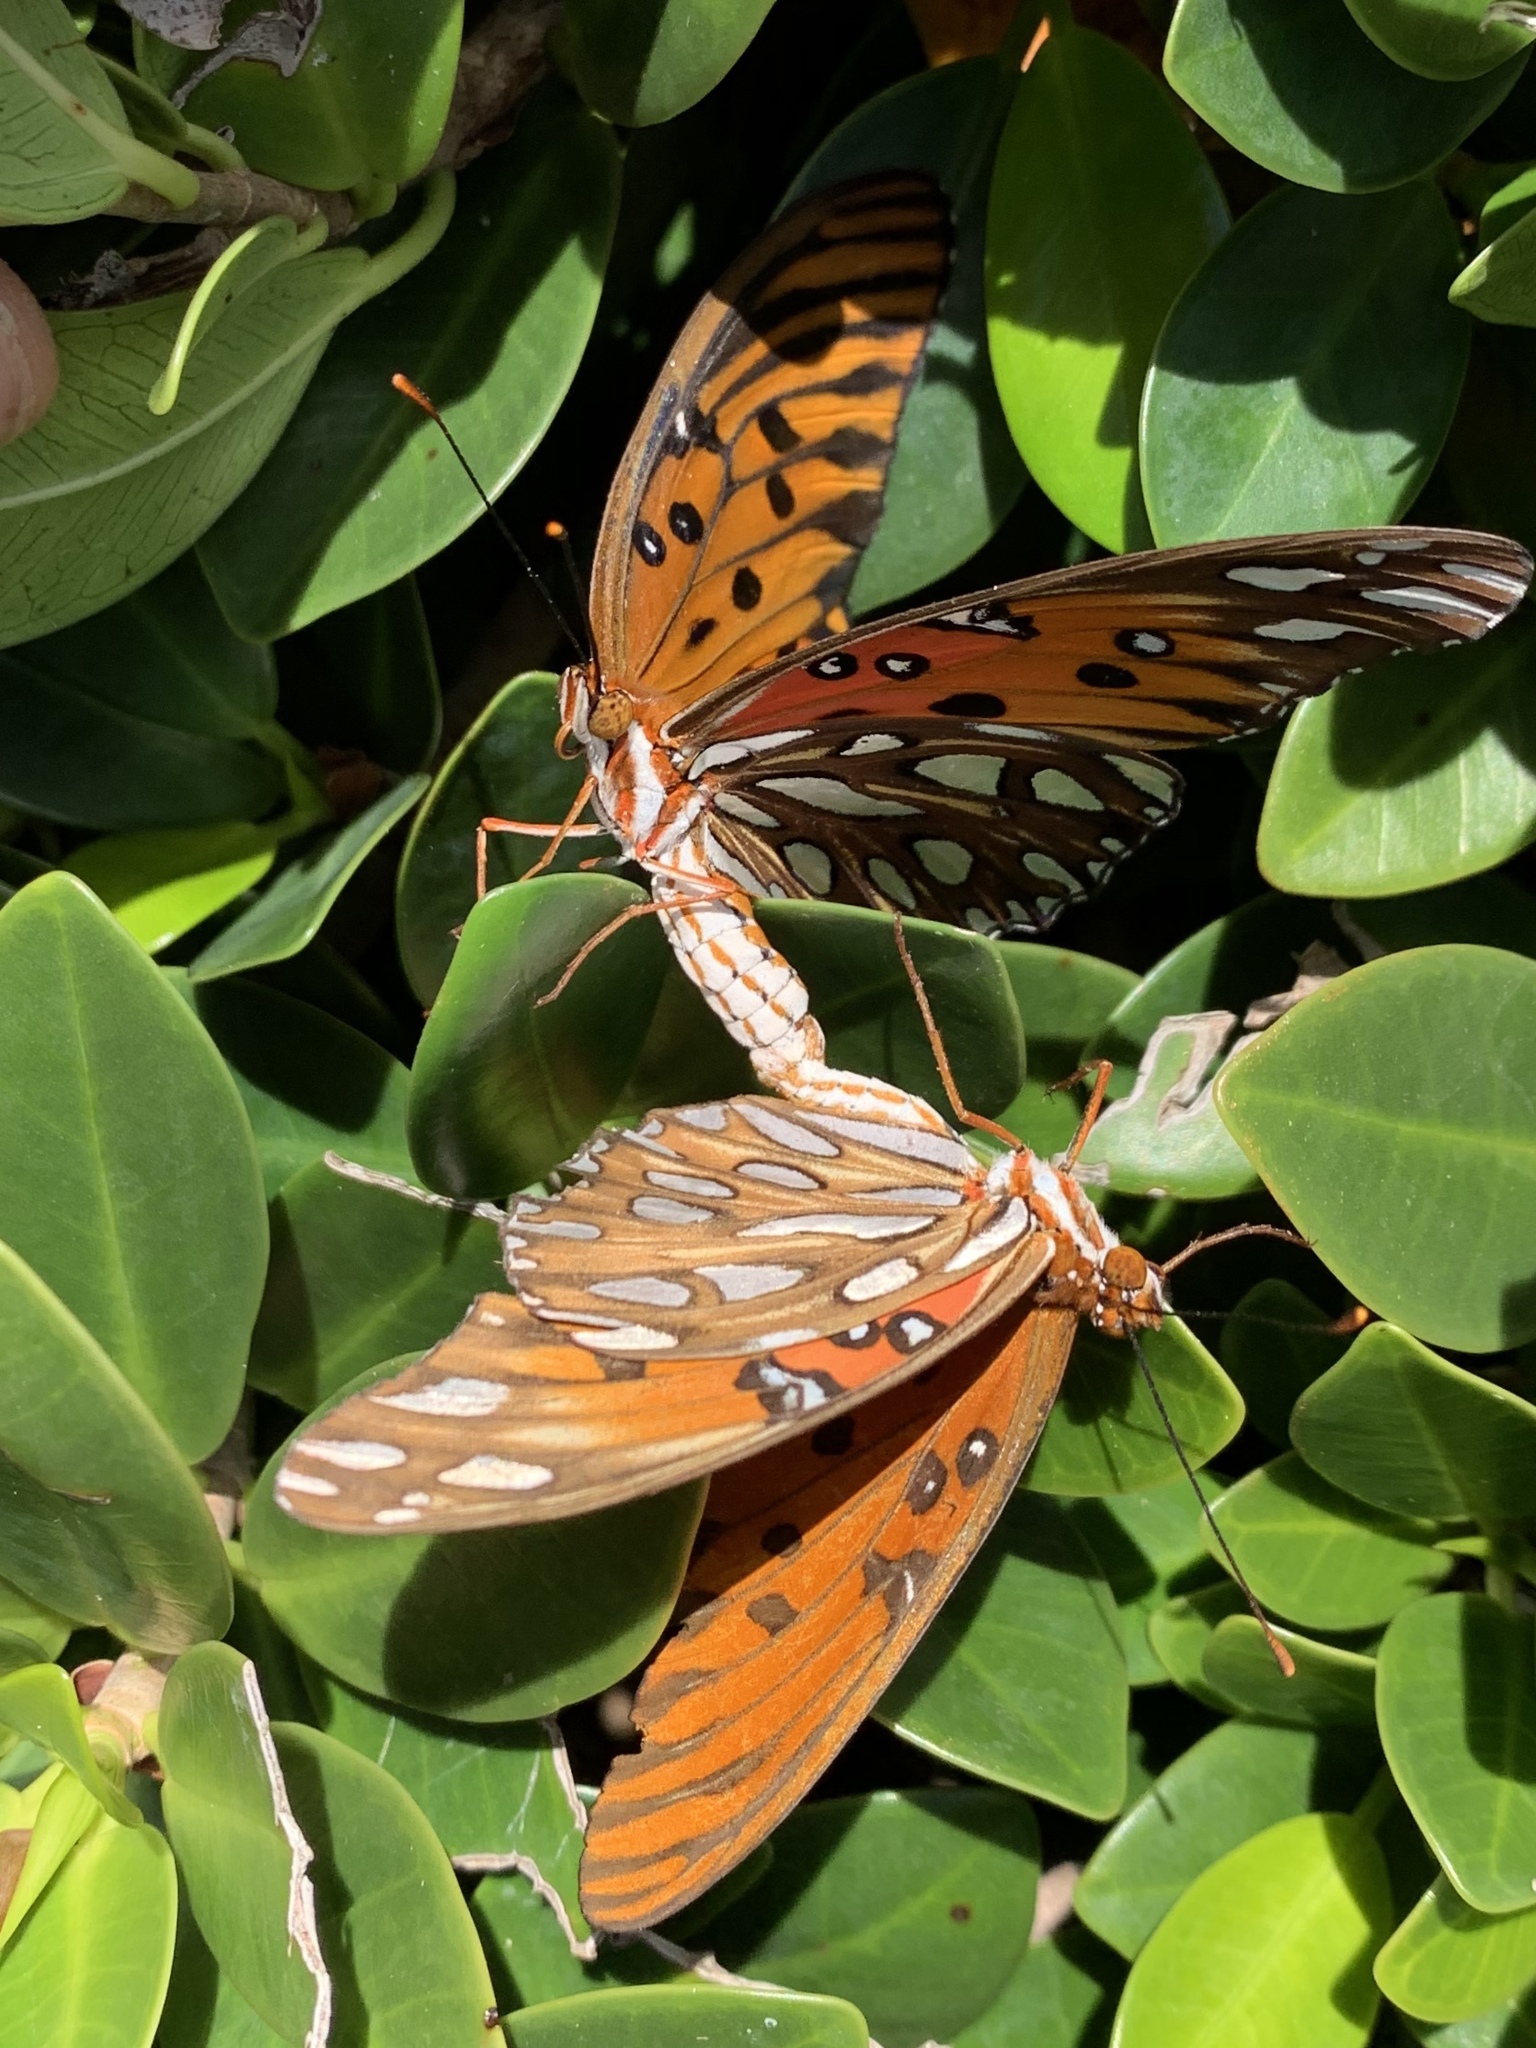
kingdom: Animalia
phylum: Arthropoda
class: Insecta
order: Lepidoptera
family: Nymphalidae
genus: Dione
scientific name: Dione vanillae
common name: Gulf fritillary
